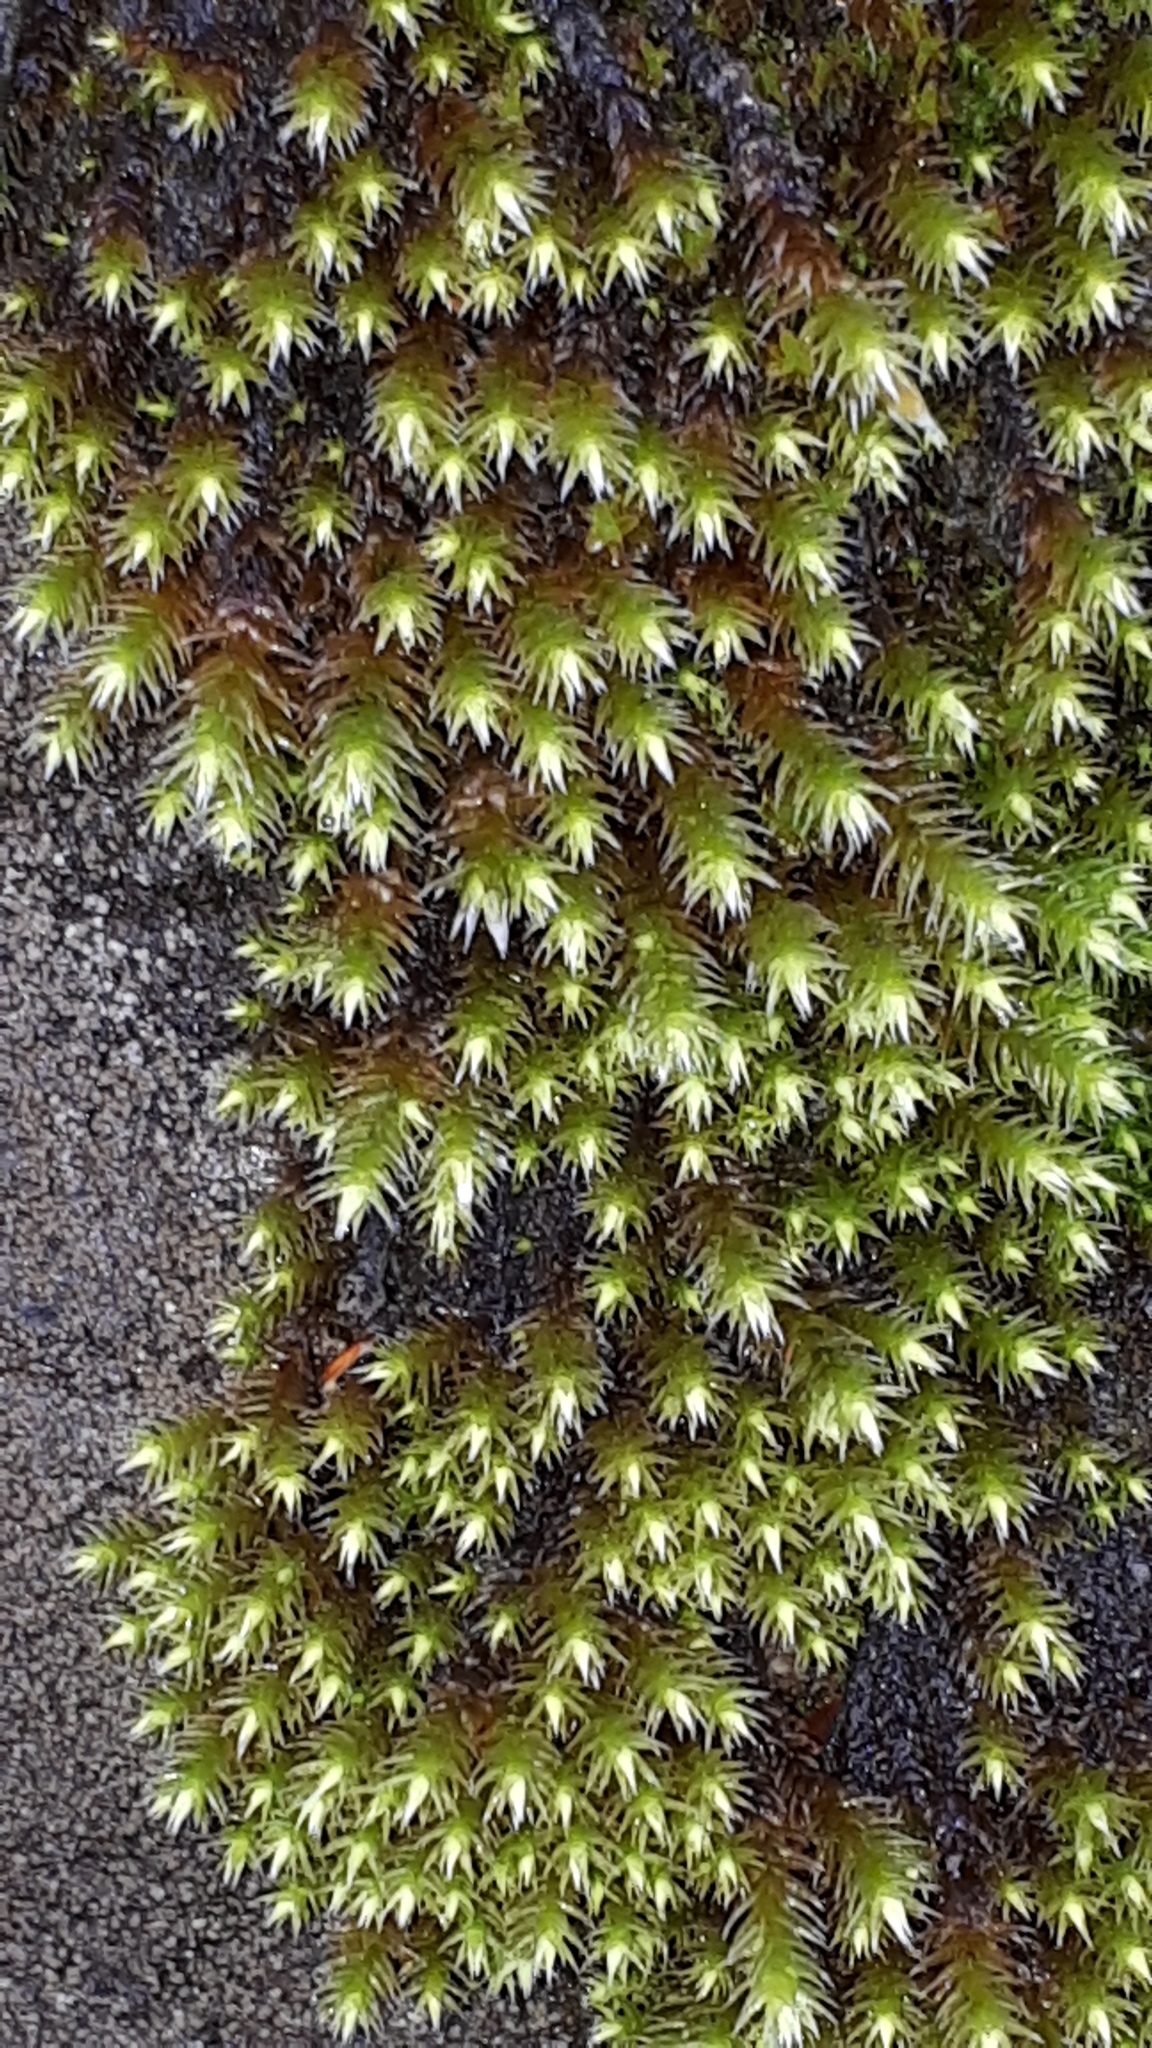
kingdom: Plantae
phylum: Bryophyta
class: Bryopsida
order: Hedwigiales
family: Hedwigiaceae
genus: Hedwigia
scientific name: Hedwigia ciliata
